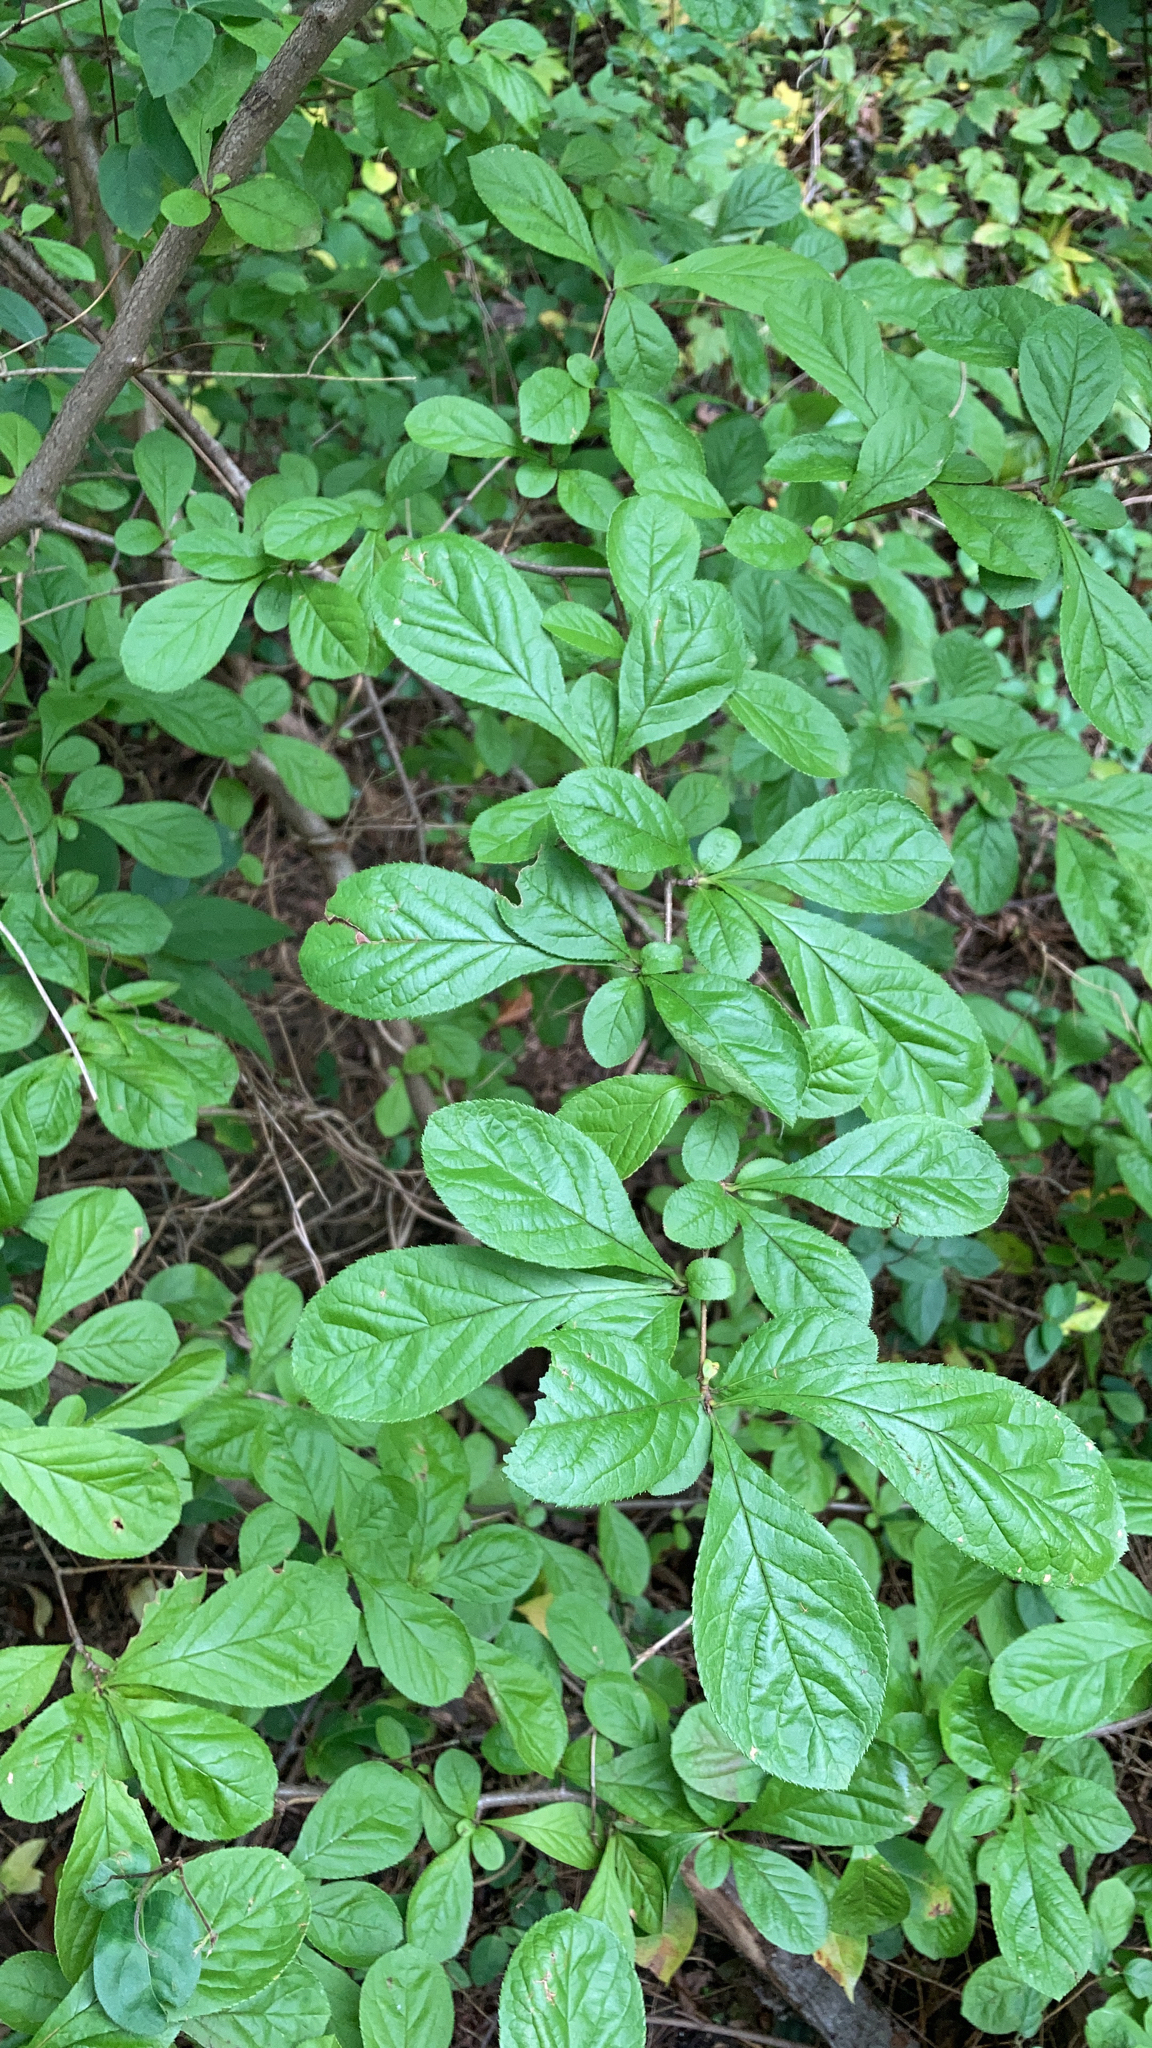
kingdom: Plantae
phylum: Tracheophyta
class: Magnoliopsida
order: Rosales
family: Rosaceae
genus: Pourthiaea
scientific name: Pourthiaea villosa
